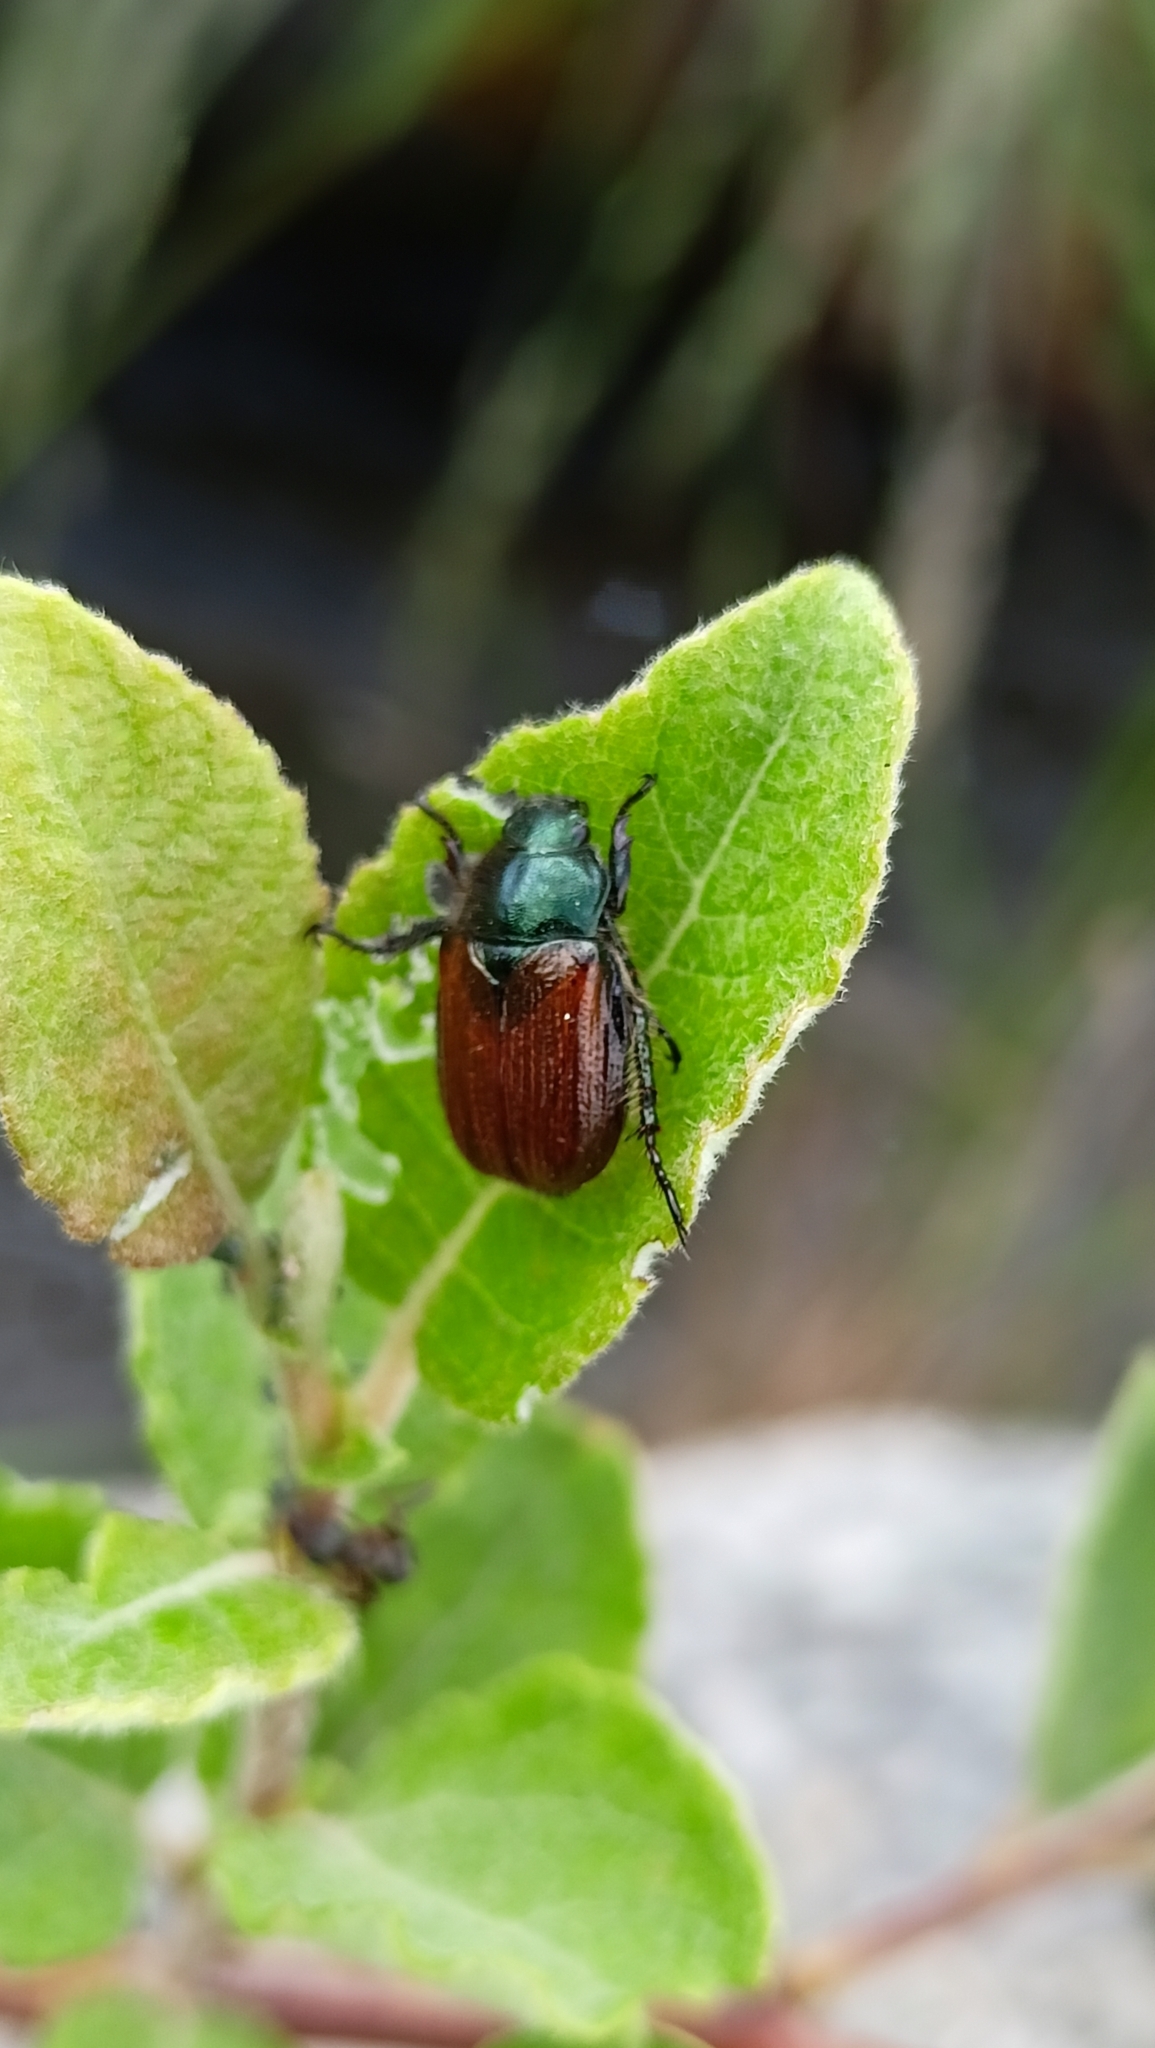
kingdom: Animalia
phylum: Arthropoda
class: Insecta
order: Coleoptera
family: Scarabaeidae
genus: Phyllopertha
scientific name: Phyllopertha horticola
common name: Garden chafer
